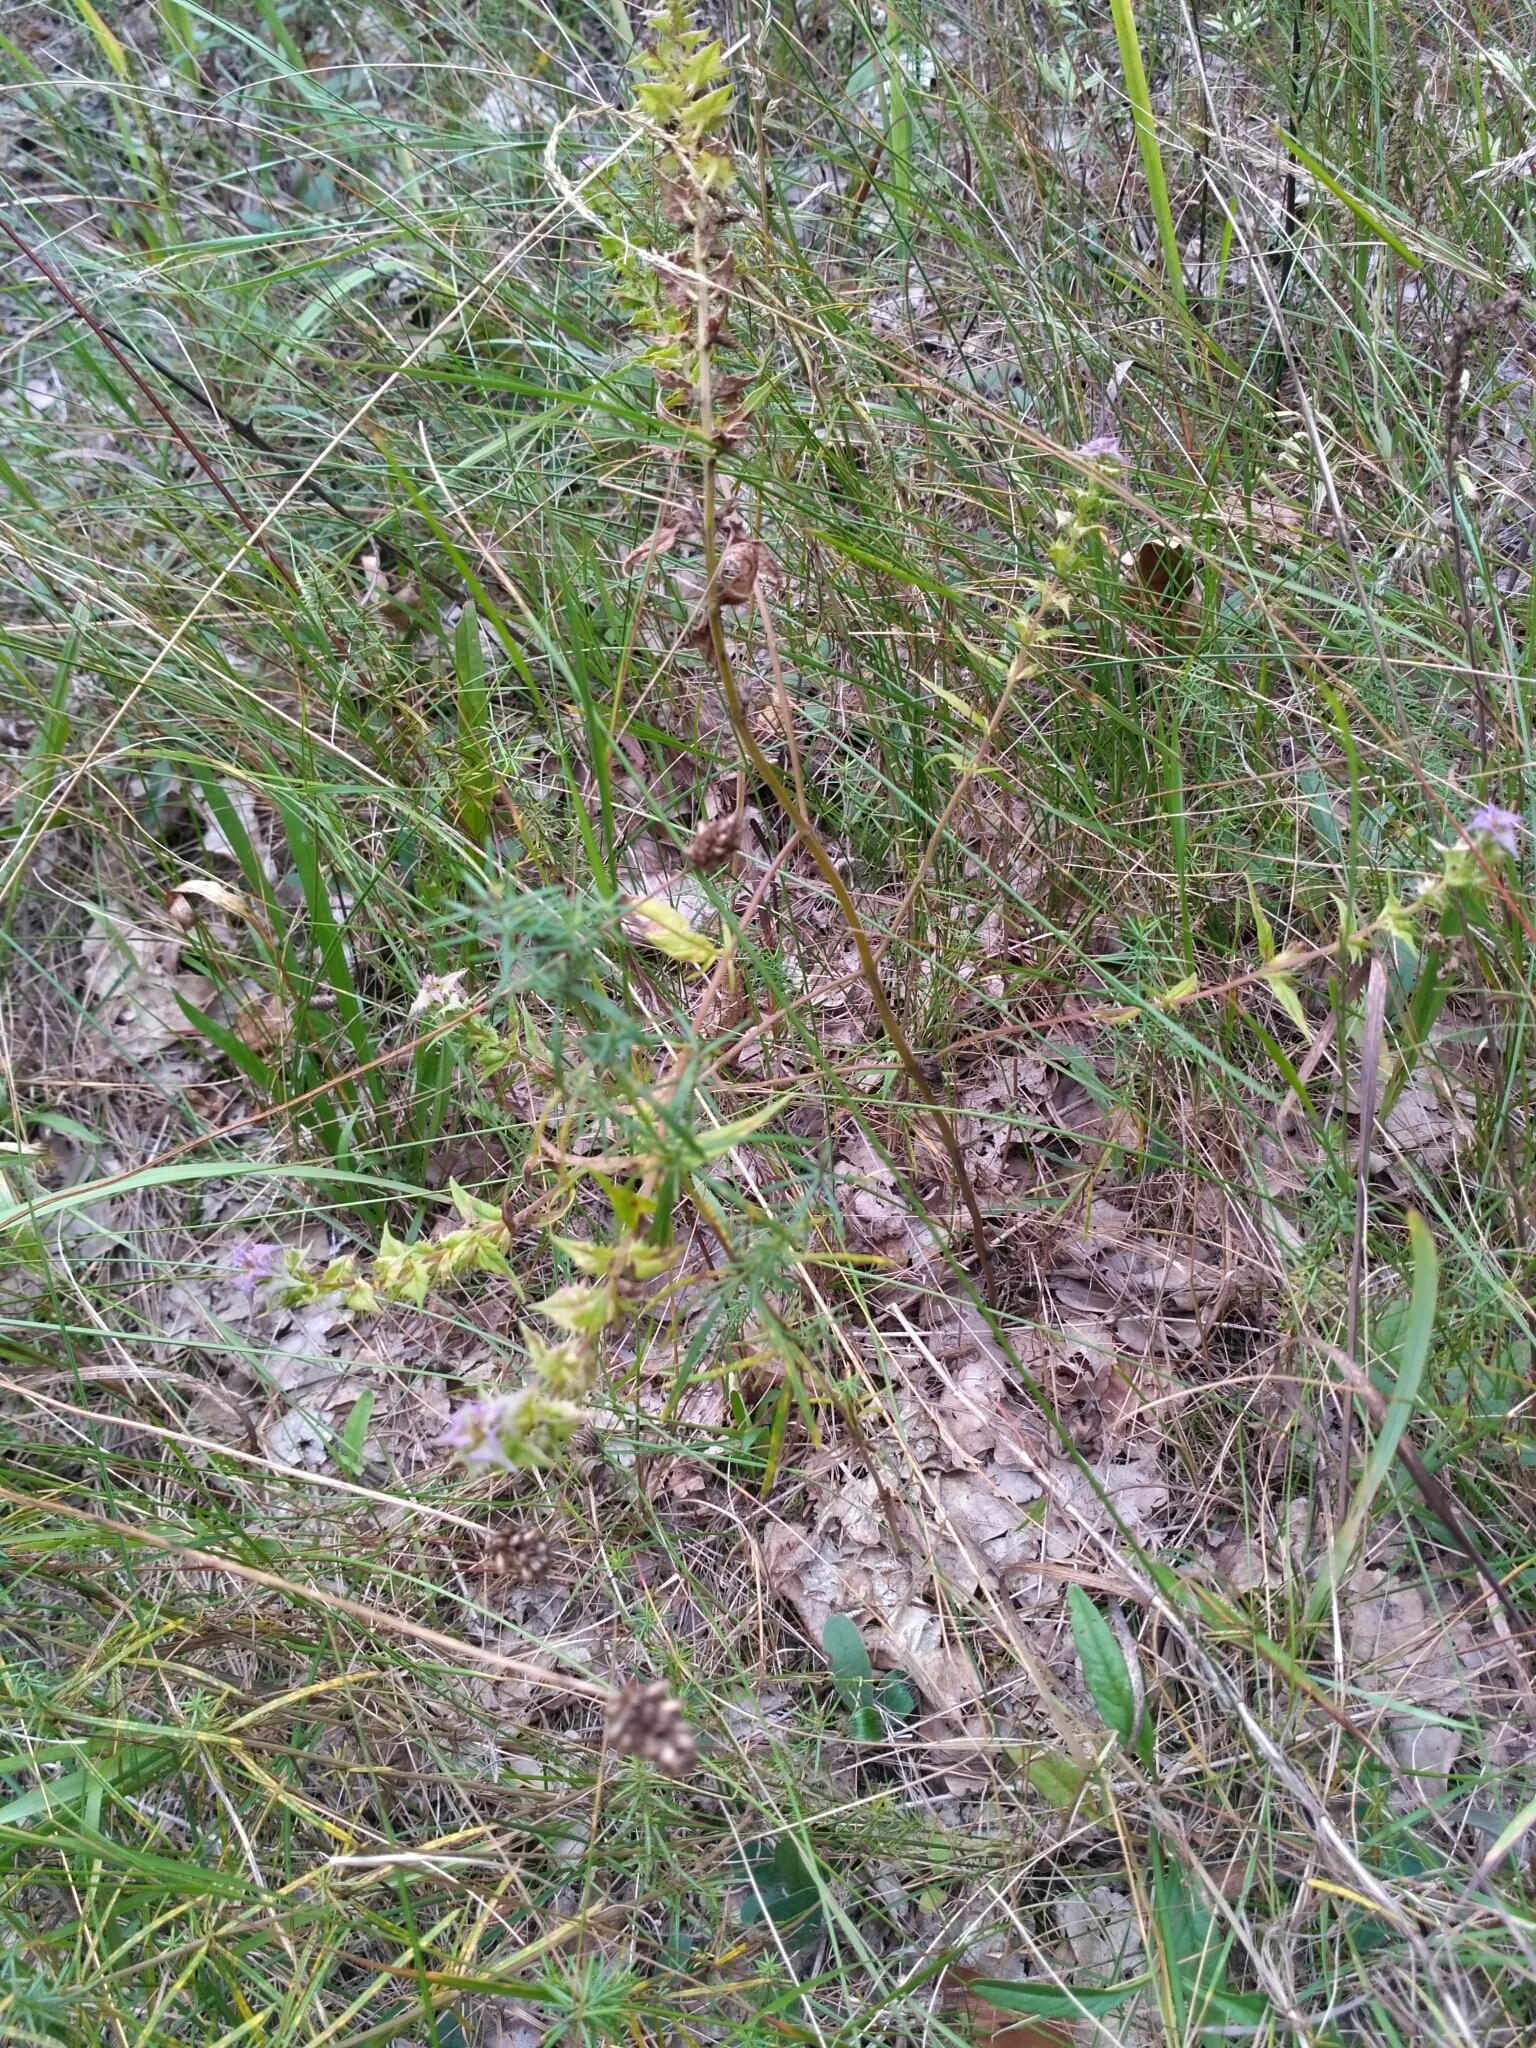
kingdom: Plantae
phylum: Tracheophyta
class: Magnoliopsida
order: Lamiales
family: Orobanchaceae
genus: Melampyrum
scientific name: Melampyrum nemorosum
